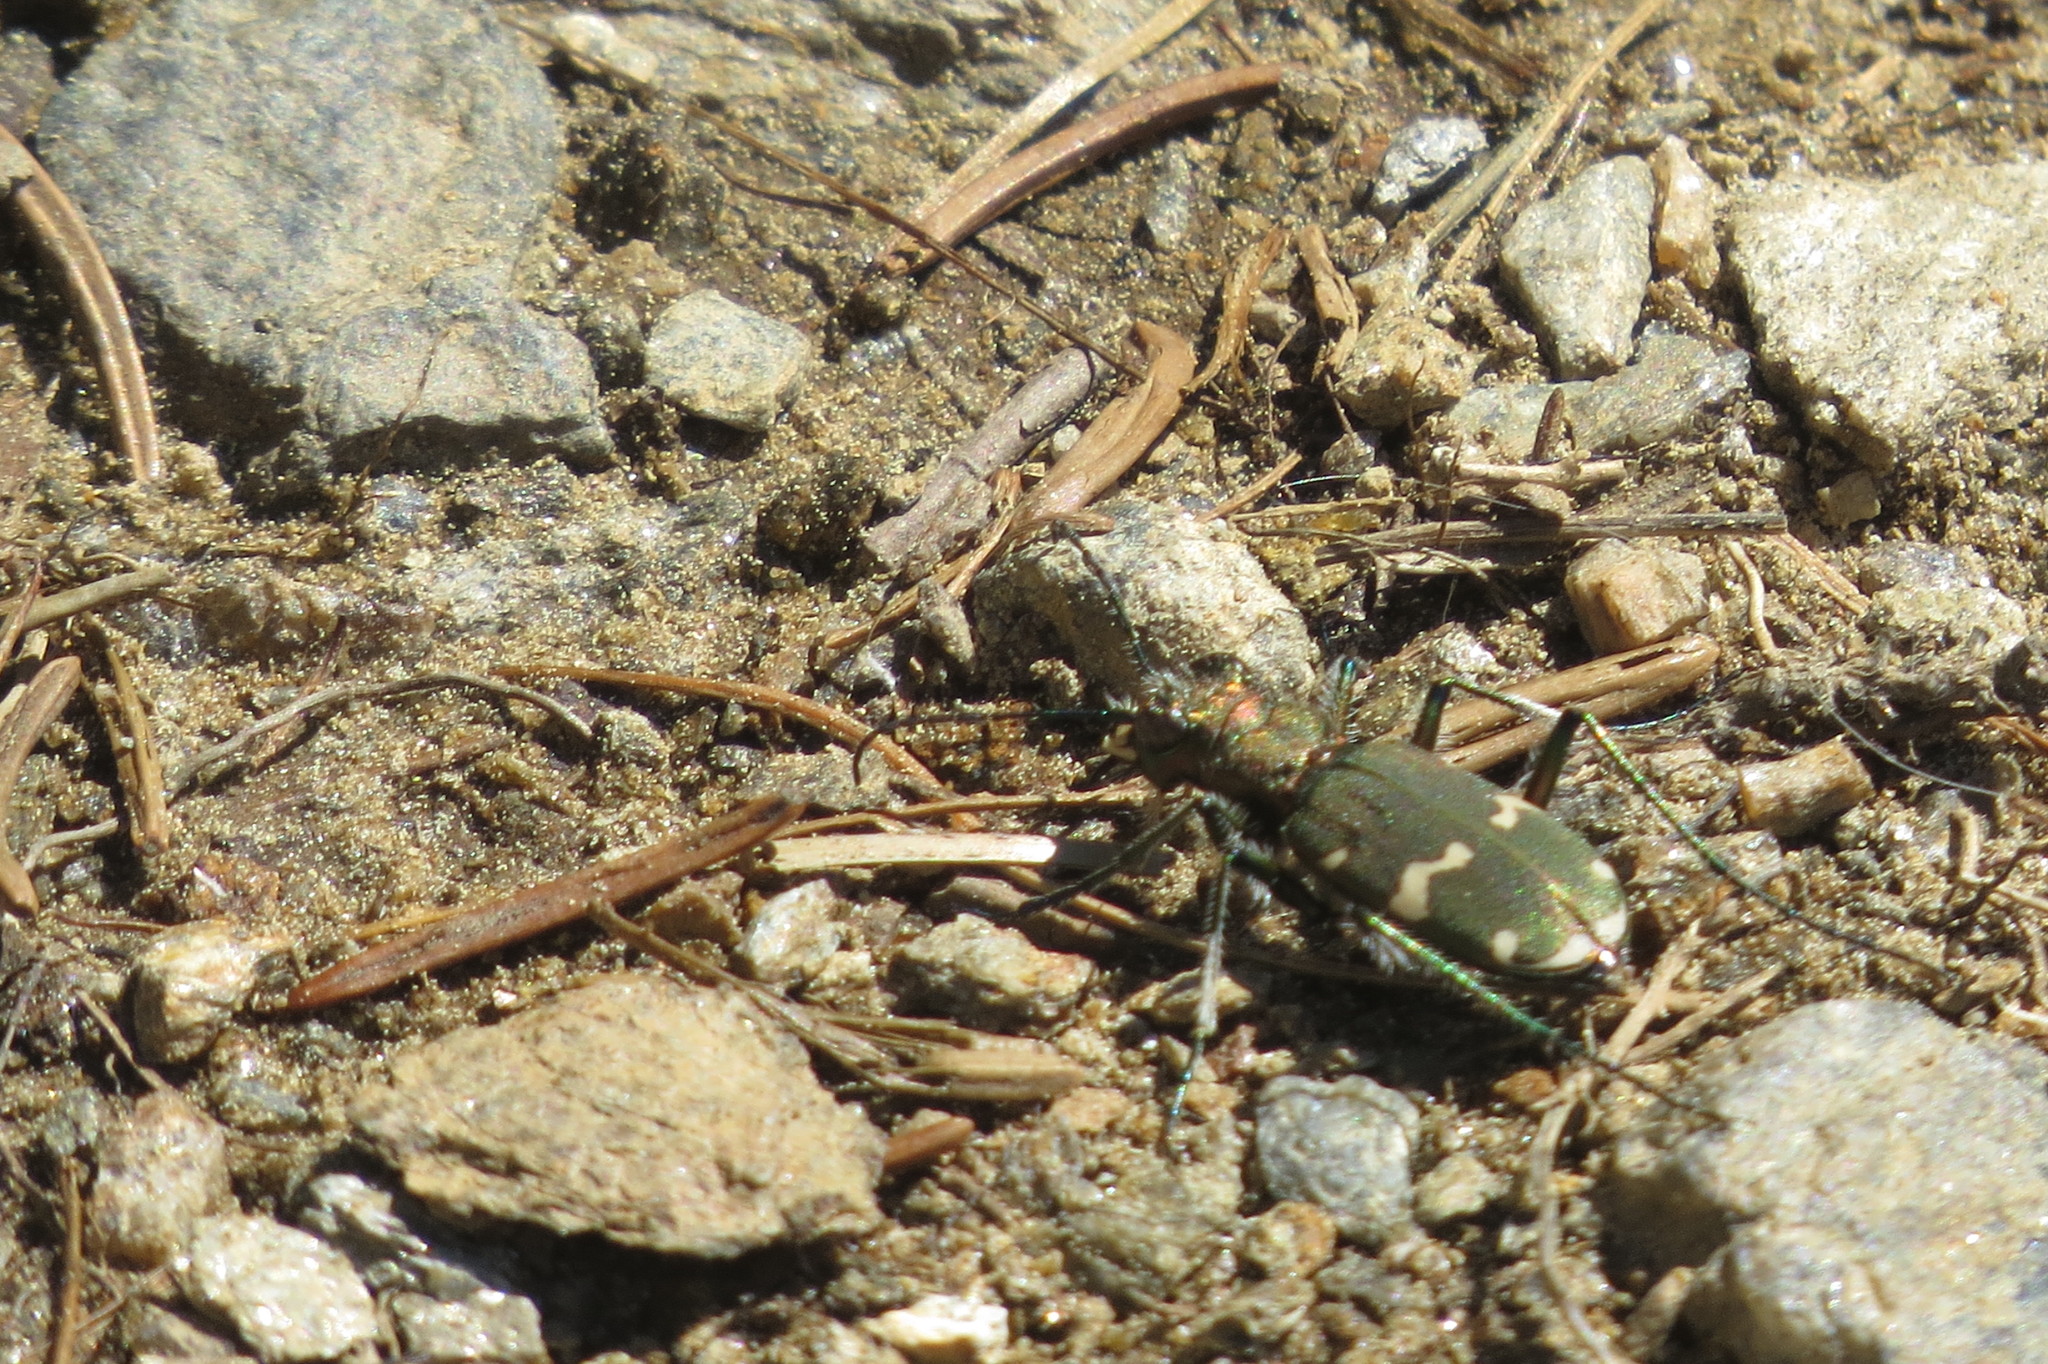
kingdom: Animalia
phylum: Arthropoda
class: Insecta
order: Coleoptera
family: Carabidae
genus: Cicindela
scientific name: Cicindela sylvicola
